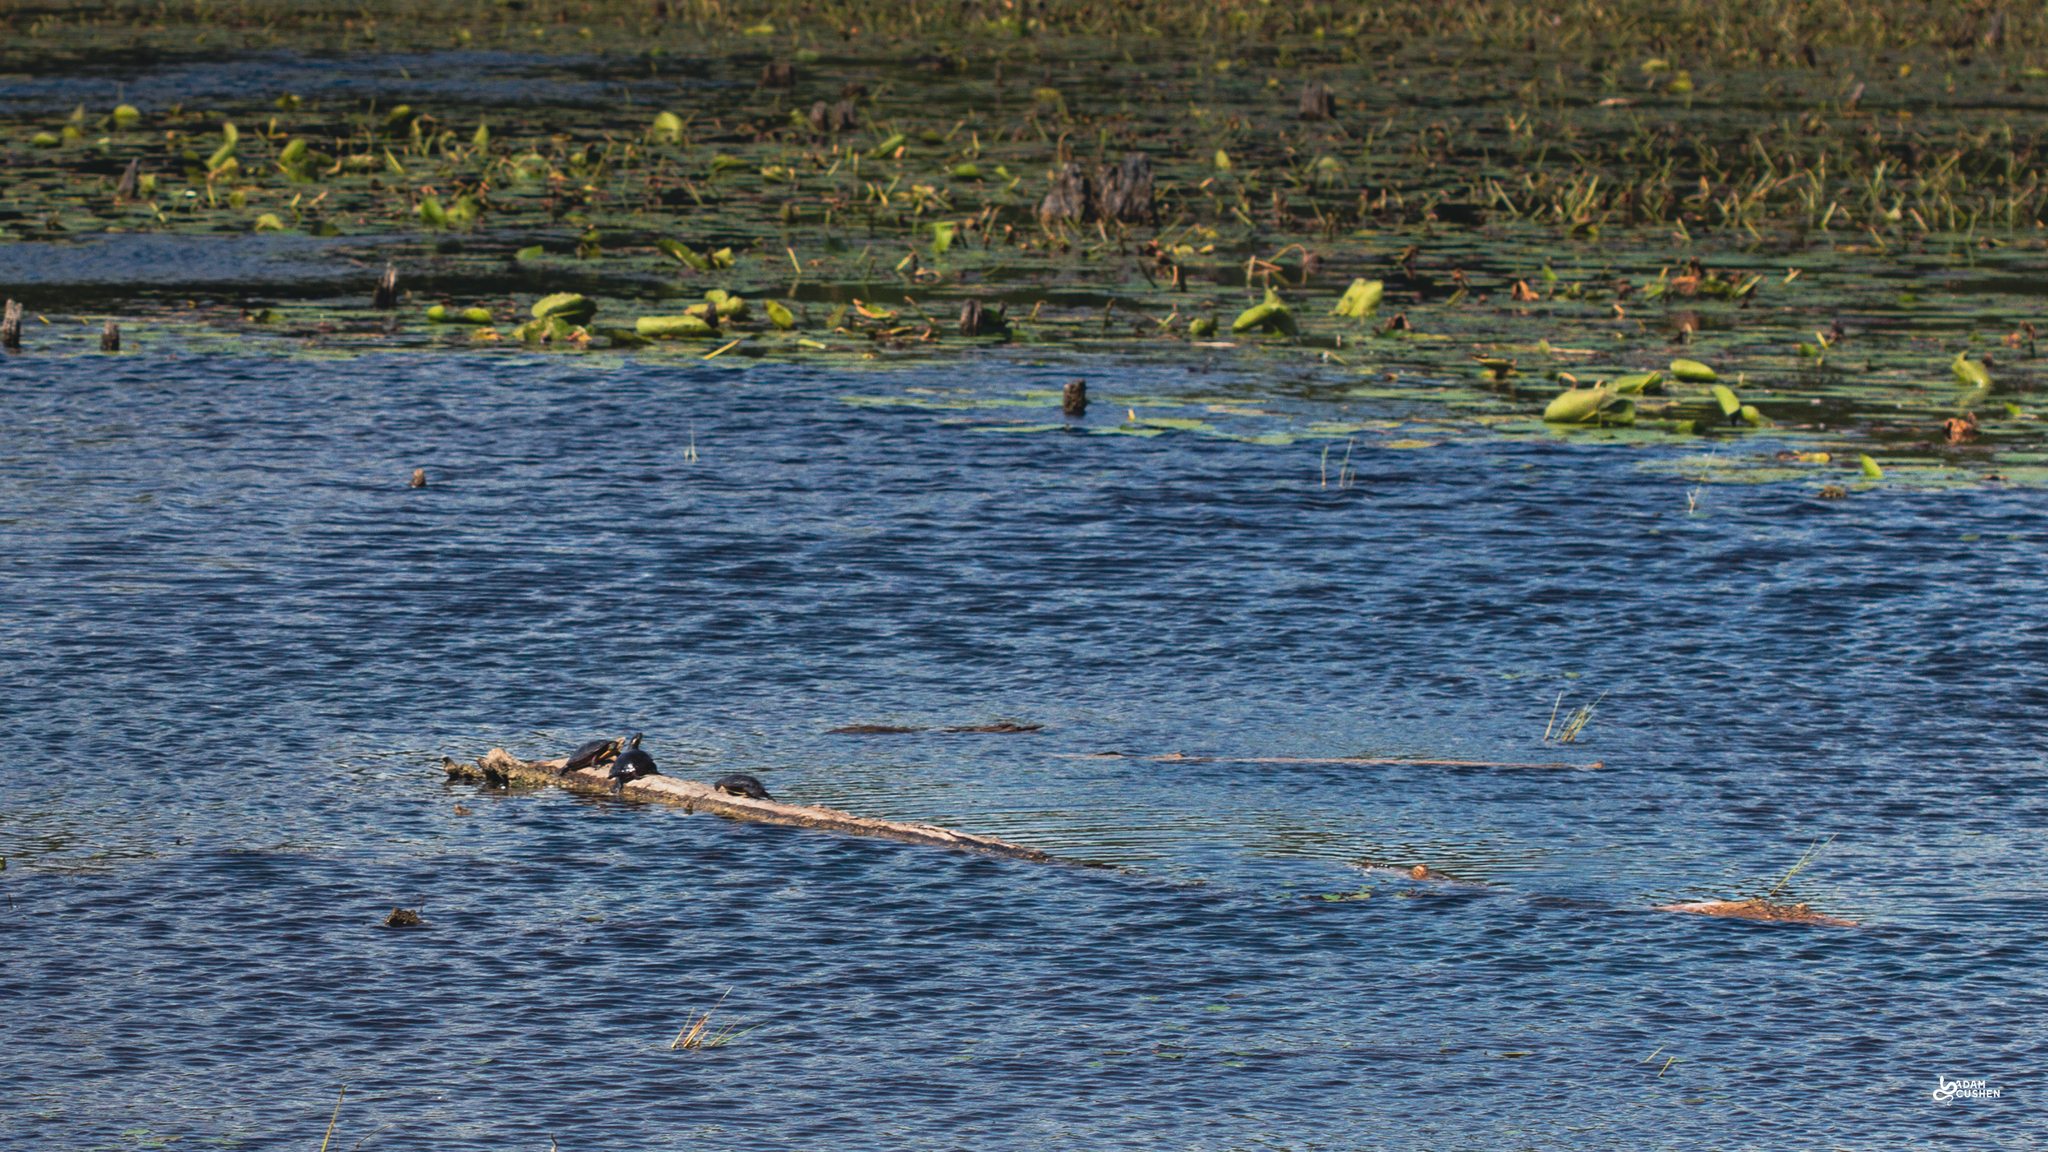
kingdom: Animalia
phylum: Chordata
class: Testudines
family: Emydidae
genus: Chrysemys
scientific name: Chrysemys picta
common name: Painted turtle
